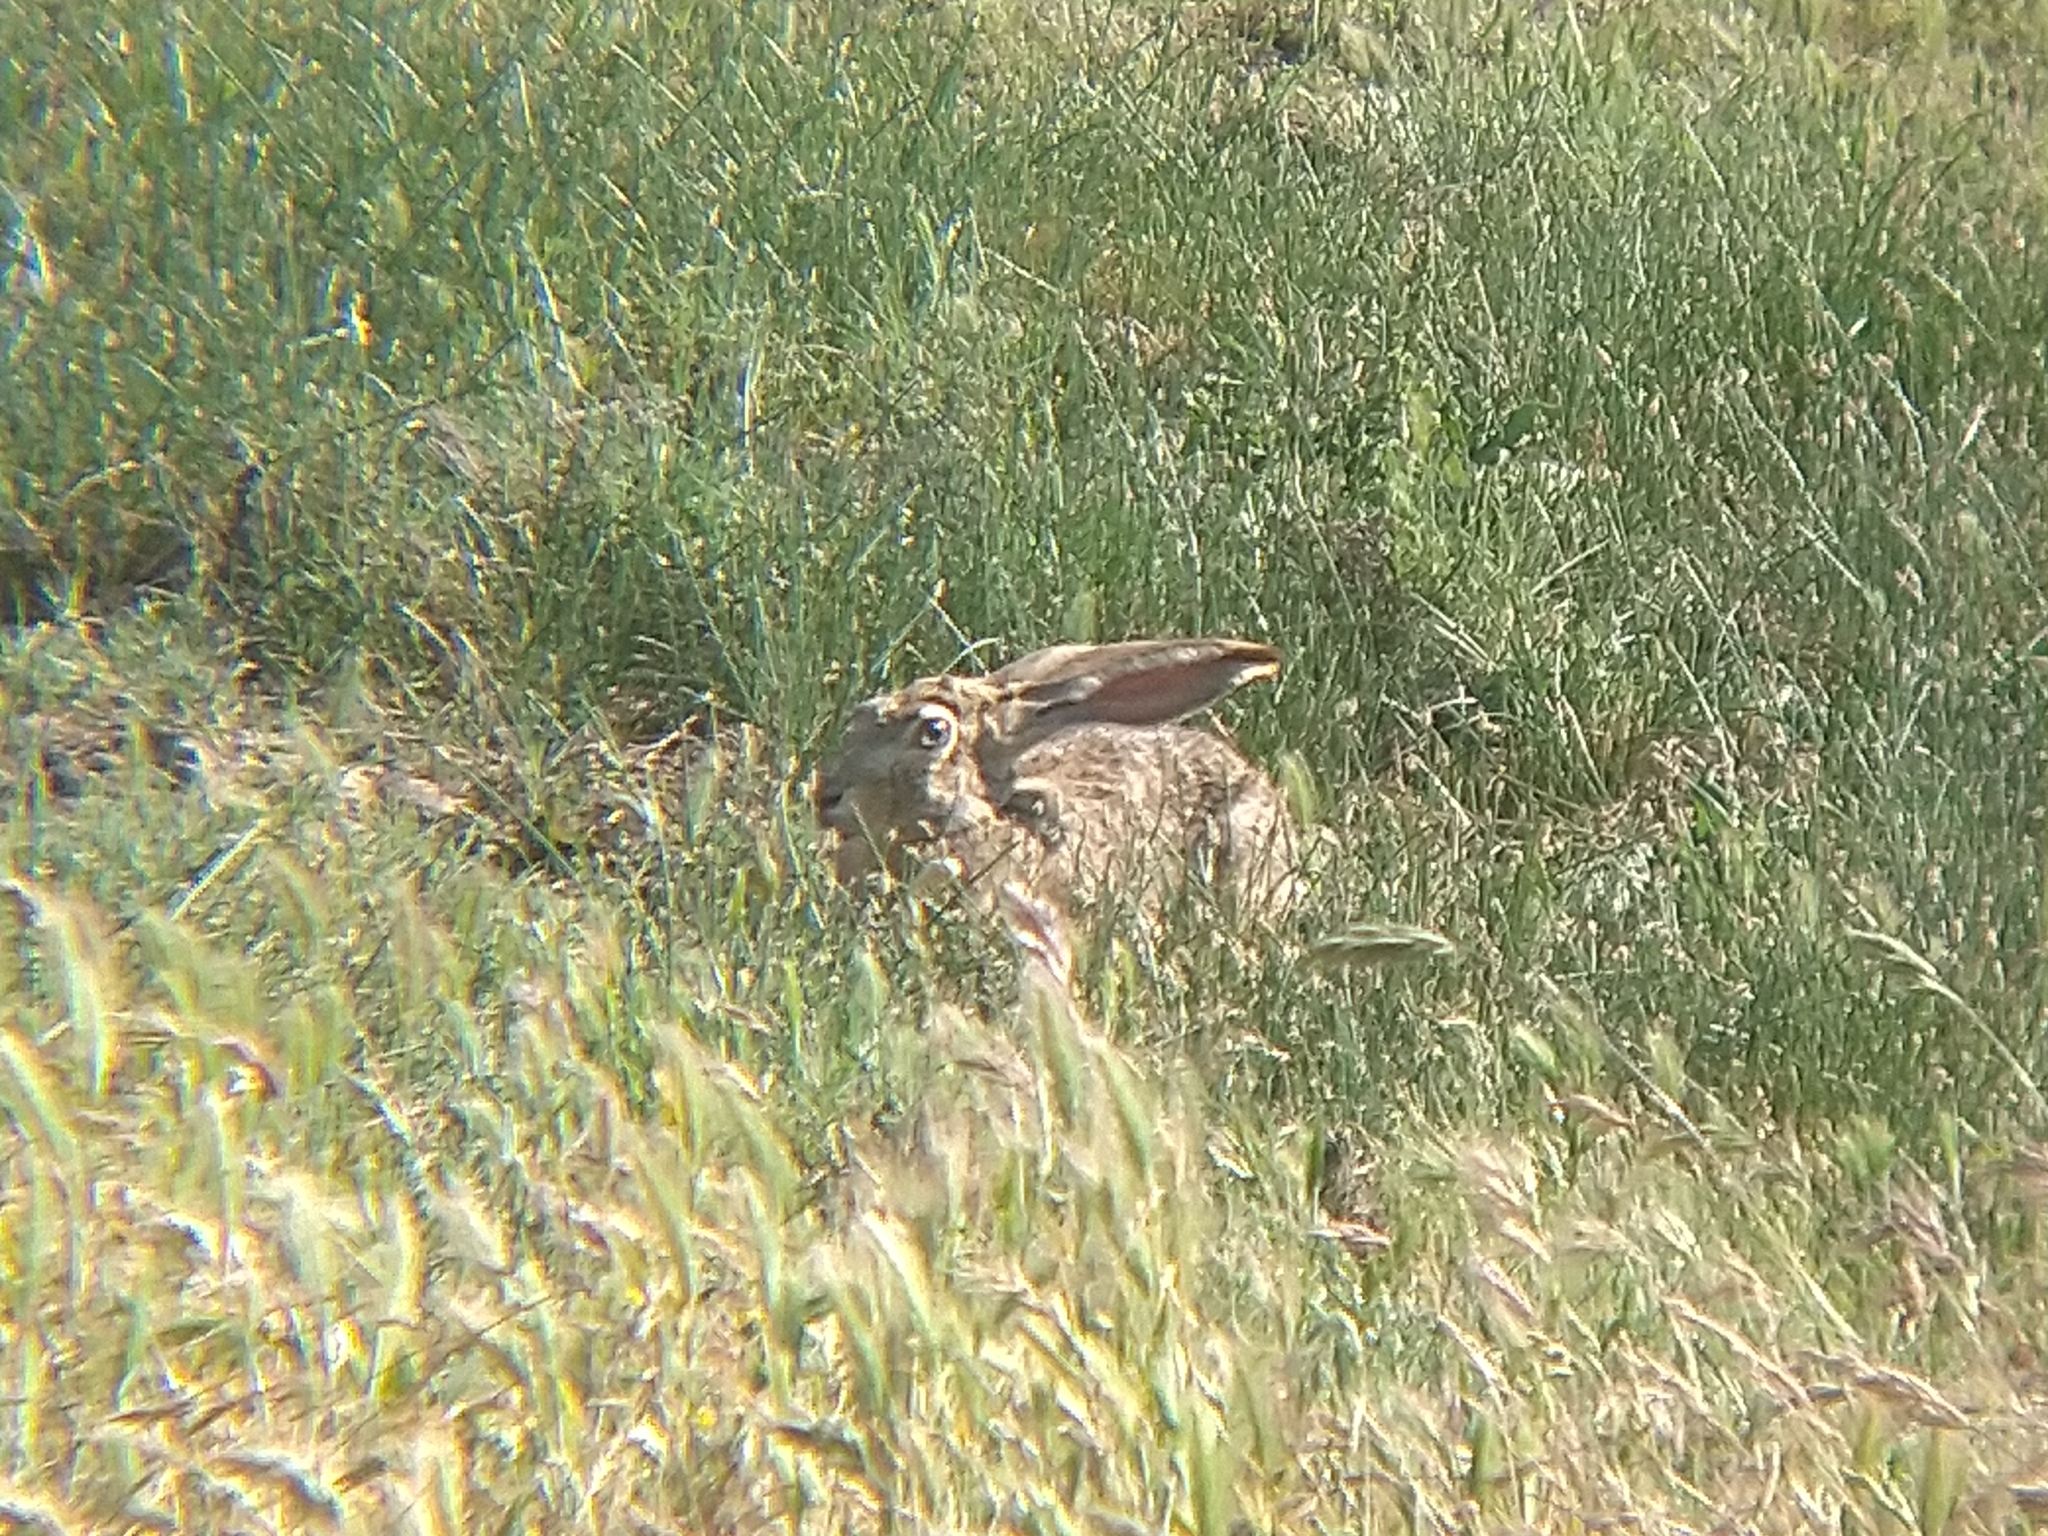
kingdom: Animalia
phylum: Chordata
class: Mammalia
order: Lagomorpha
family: Leporidae
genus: Lepus
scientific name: Lepus californicus
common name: Black-tailed jackrabbit
